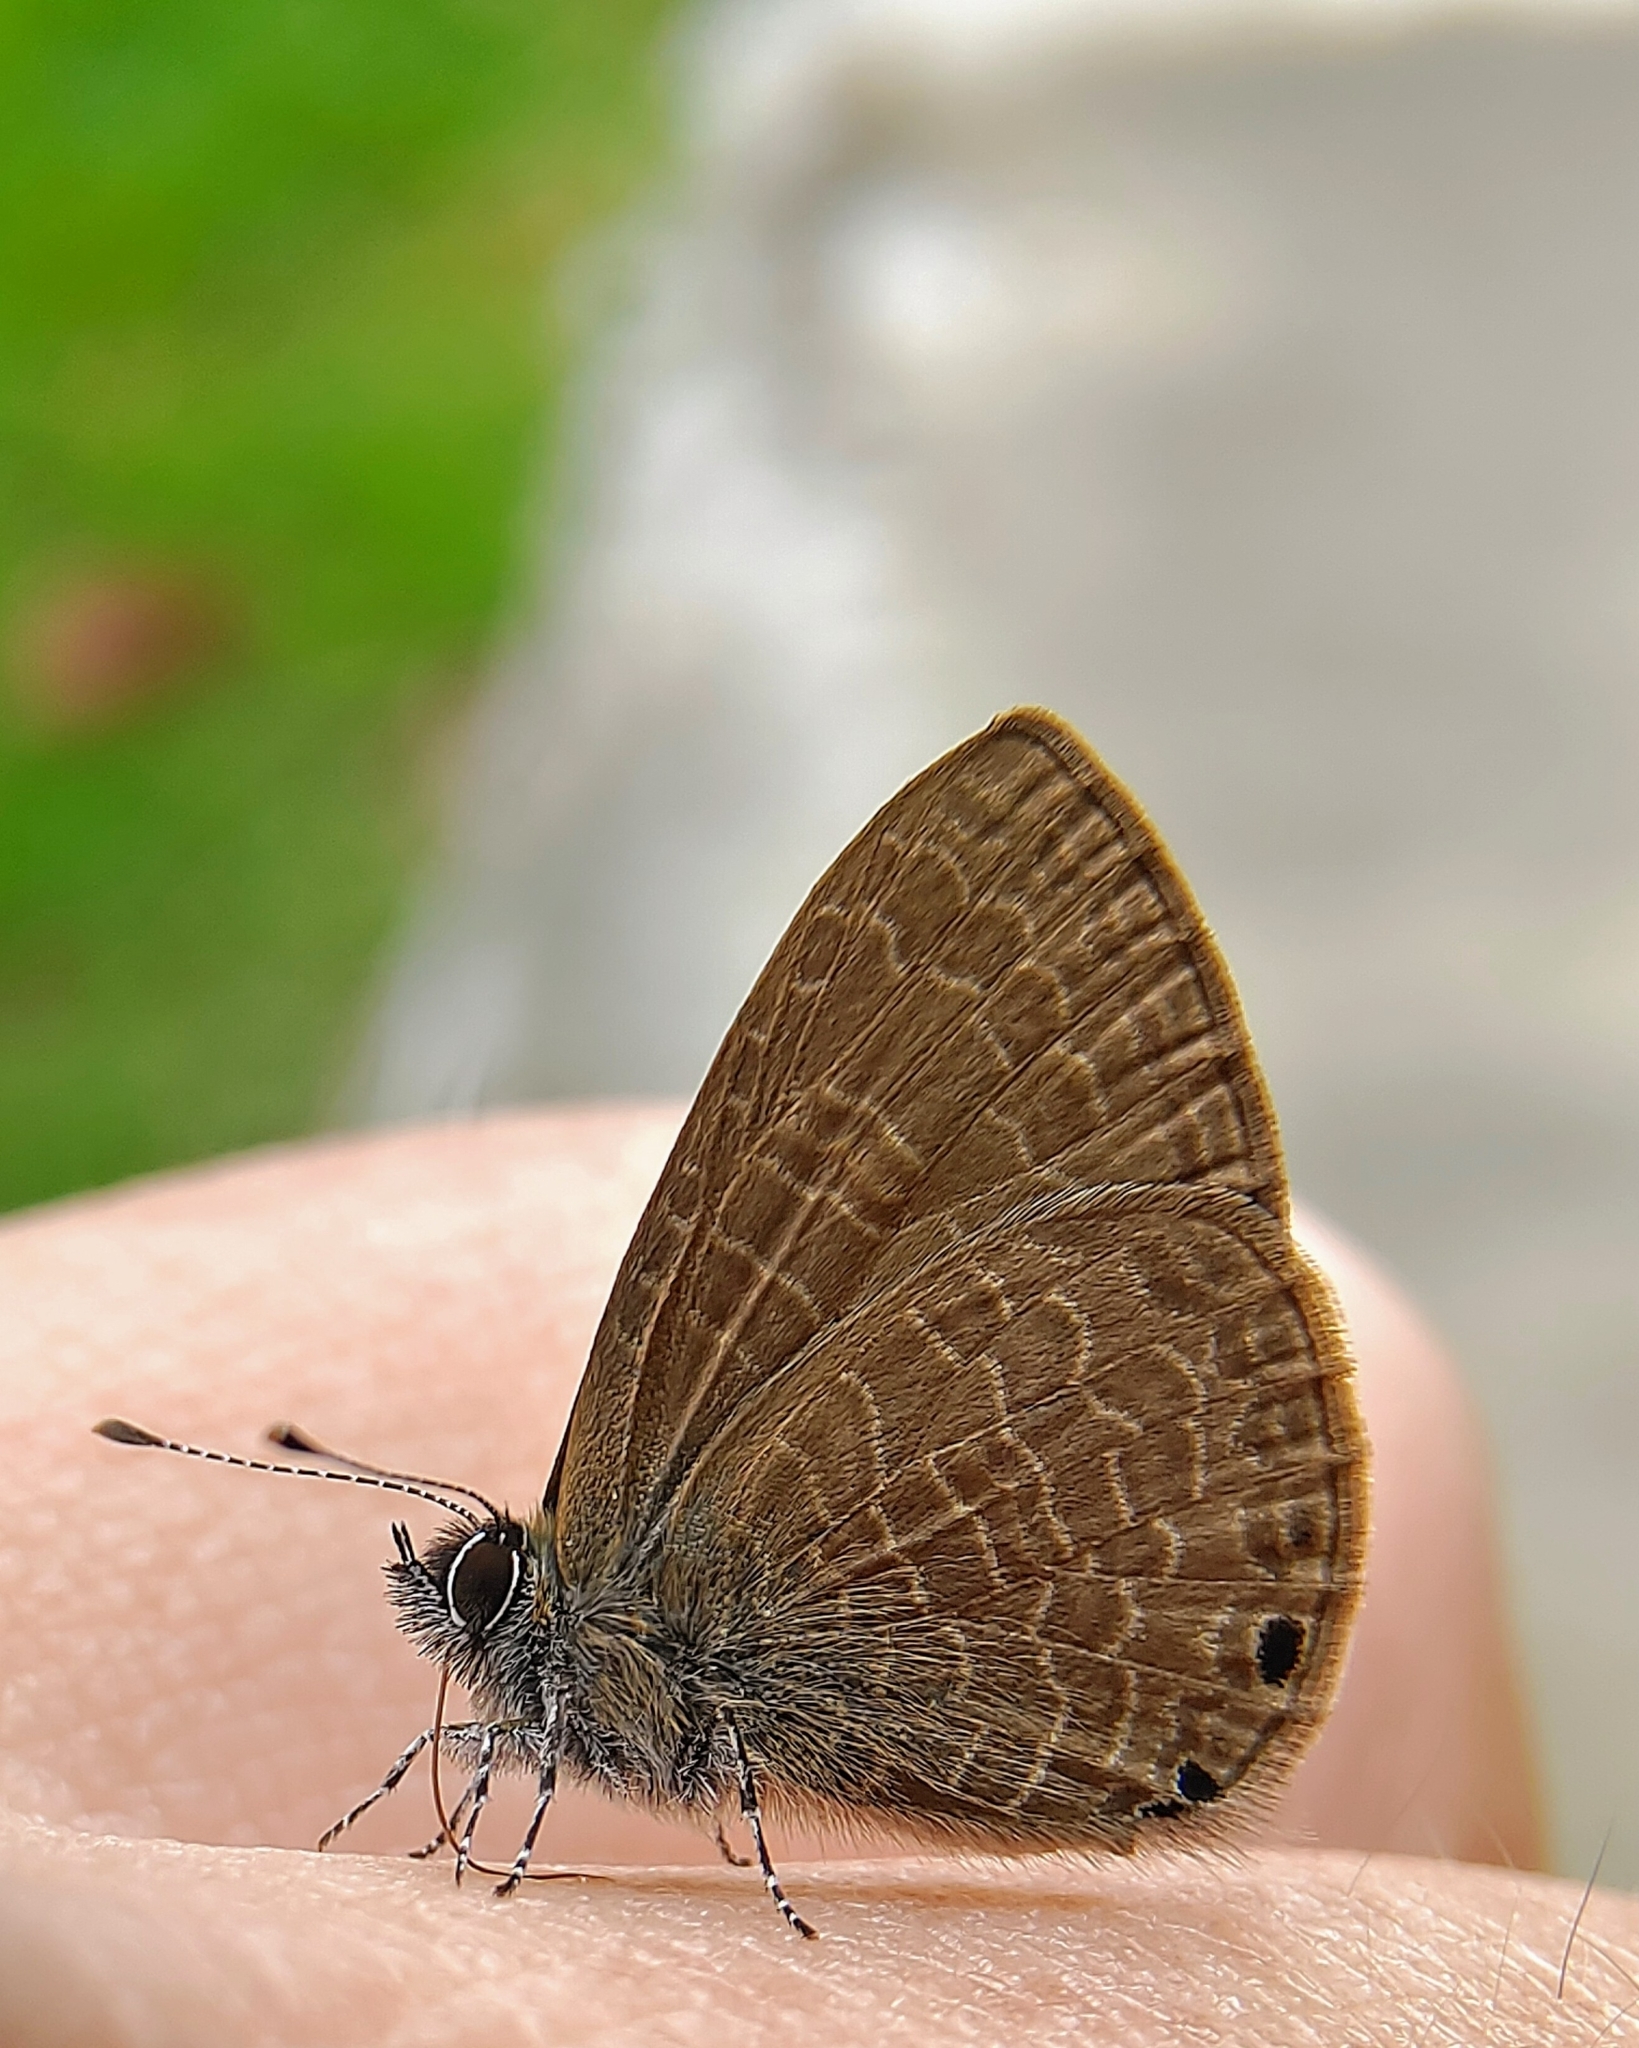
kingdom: Animalia
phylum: Arthropoda
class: Insecta
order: Lepidoptera
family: Lycaenidae
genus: Petrelaea
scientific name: Petrelaea dana
